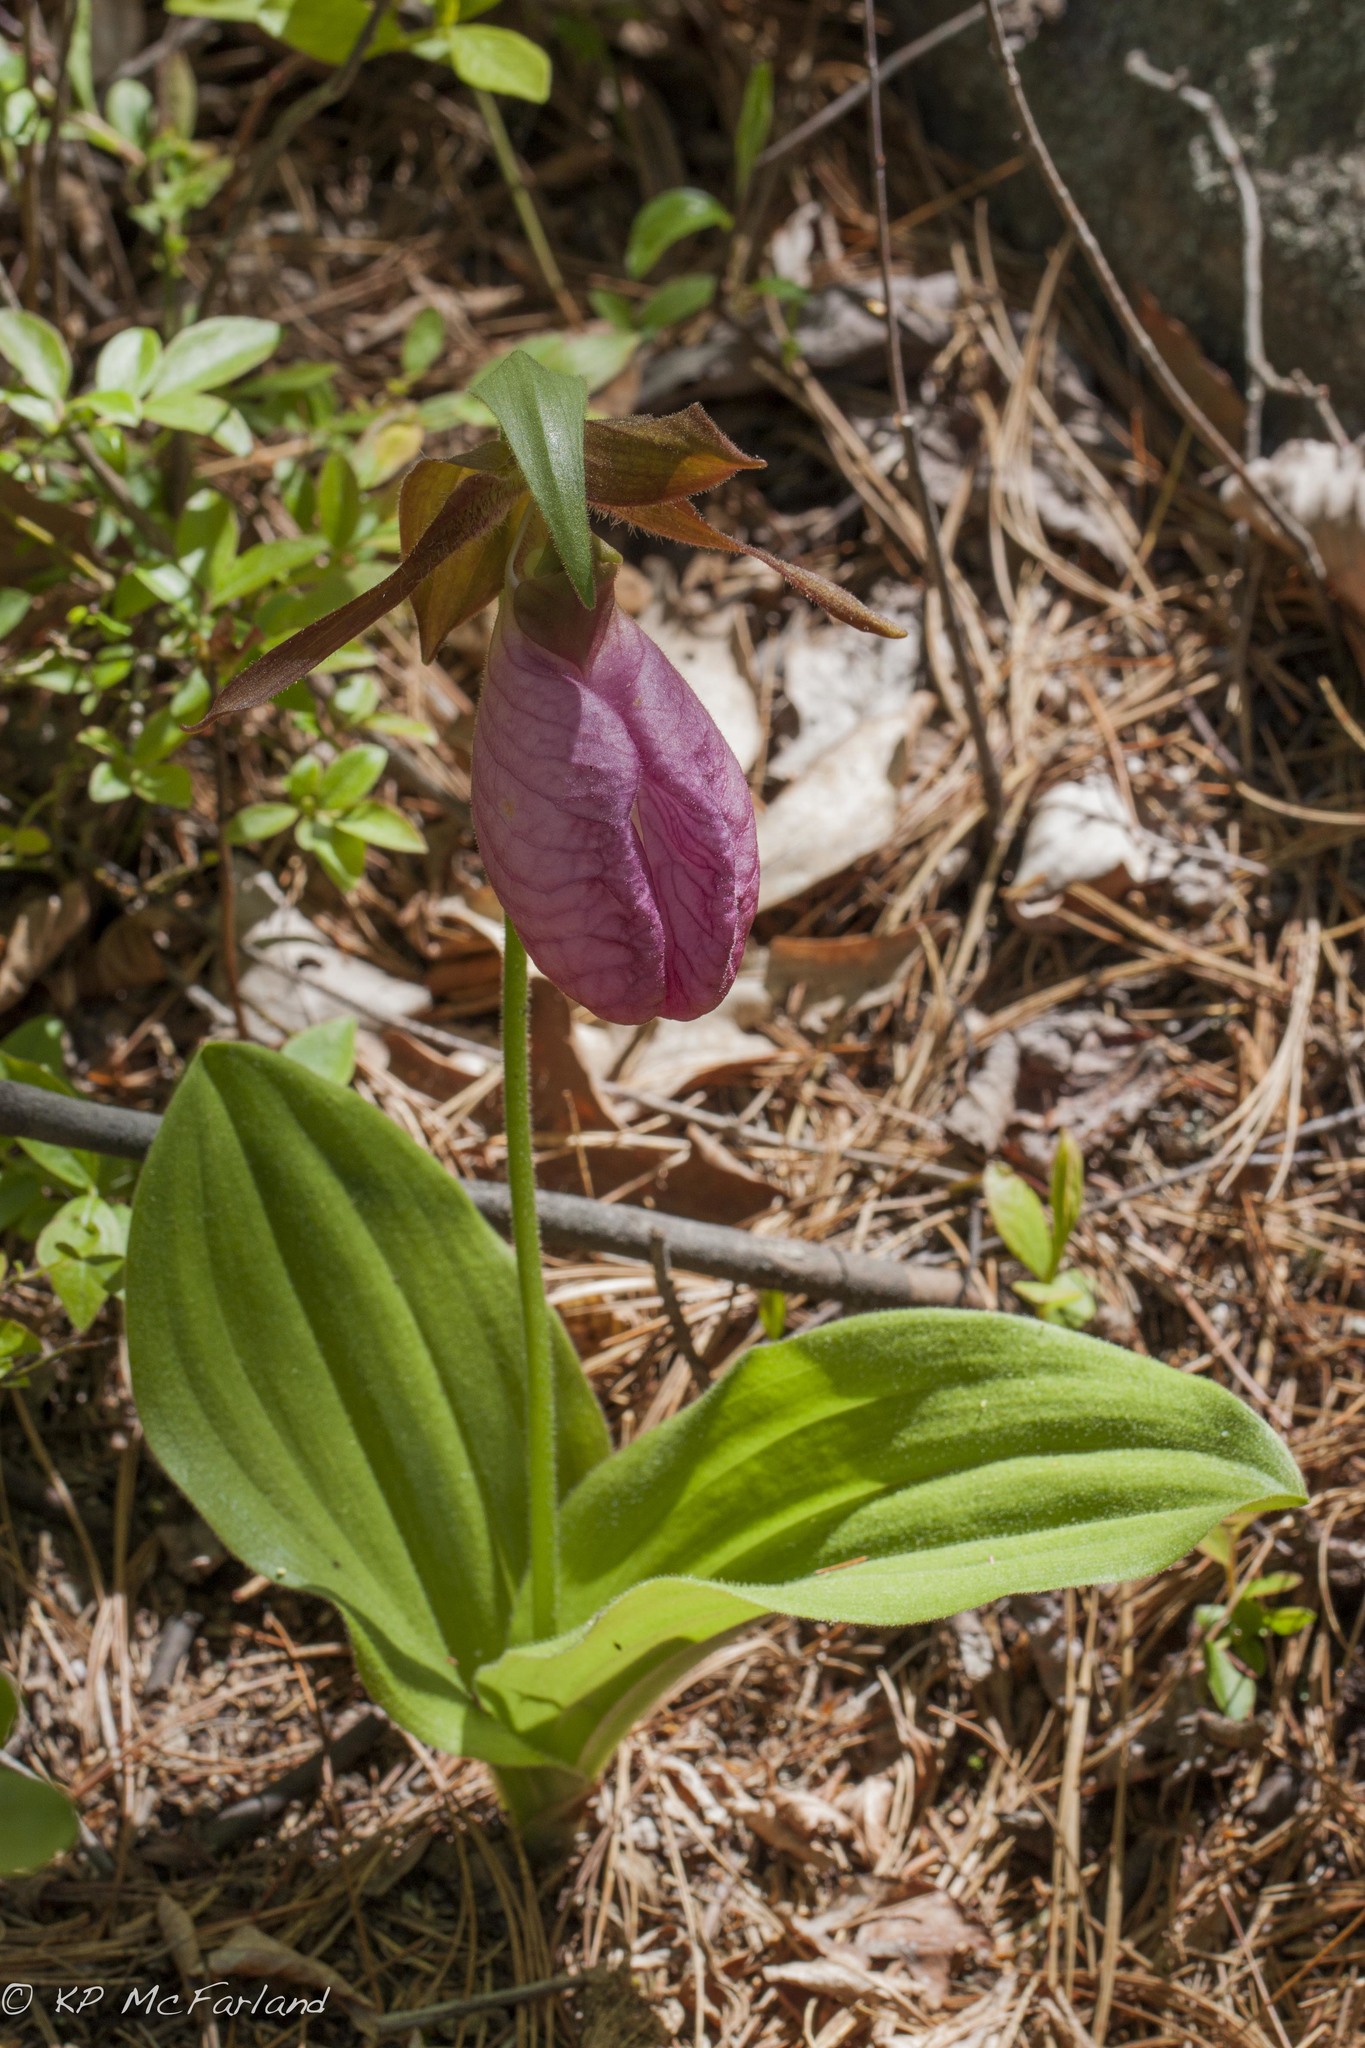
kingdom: Plantae
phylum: Tracheophyta
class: Liliopsida
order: Asparagales
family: Orchidaceae
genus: Cypripedium
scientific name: Cypripedium acaule
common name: Pink lady's-slipper
